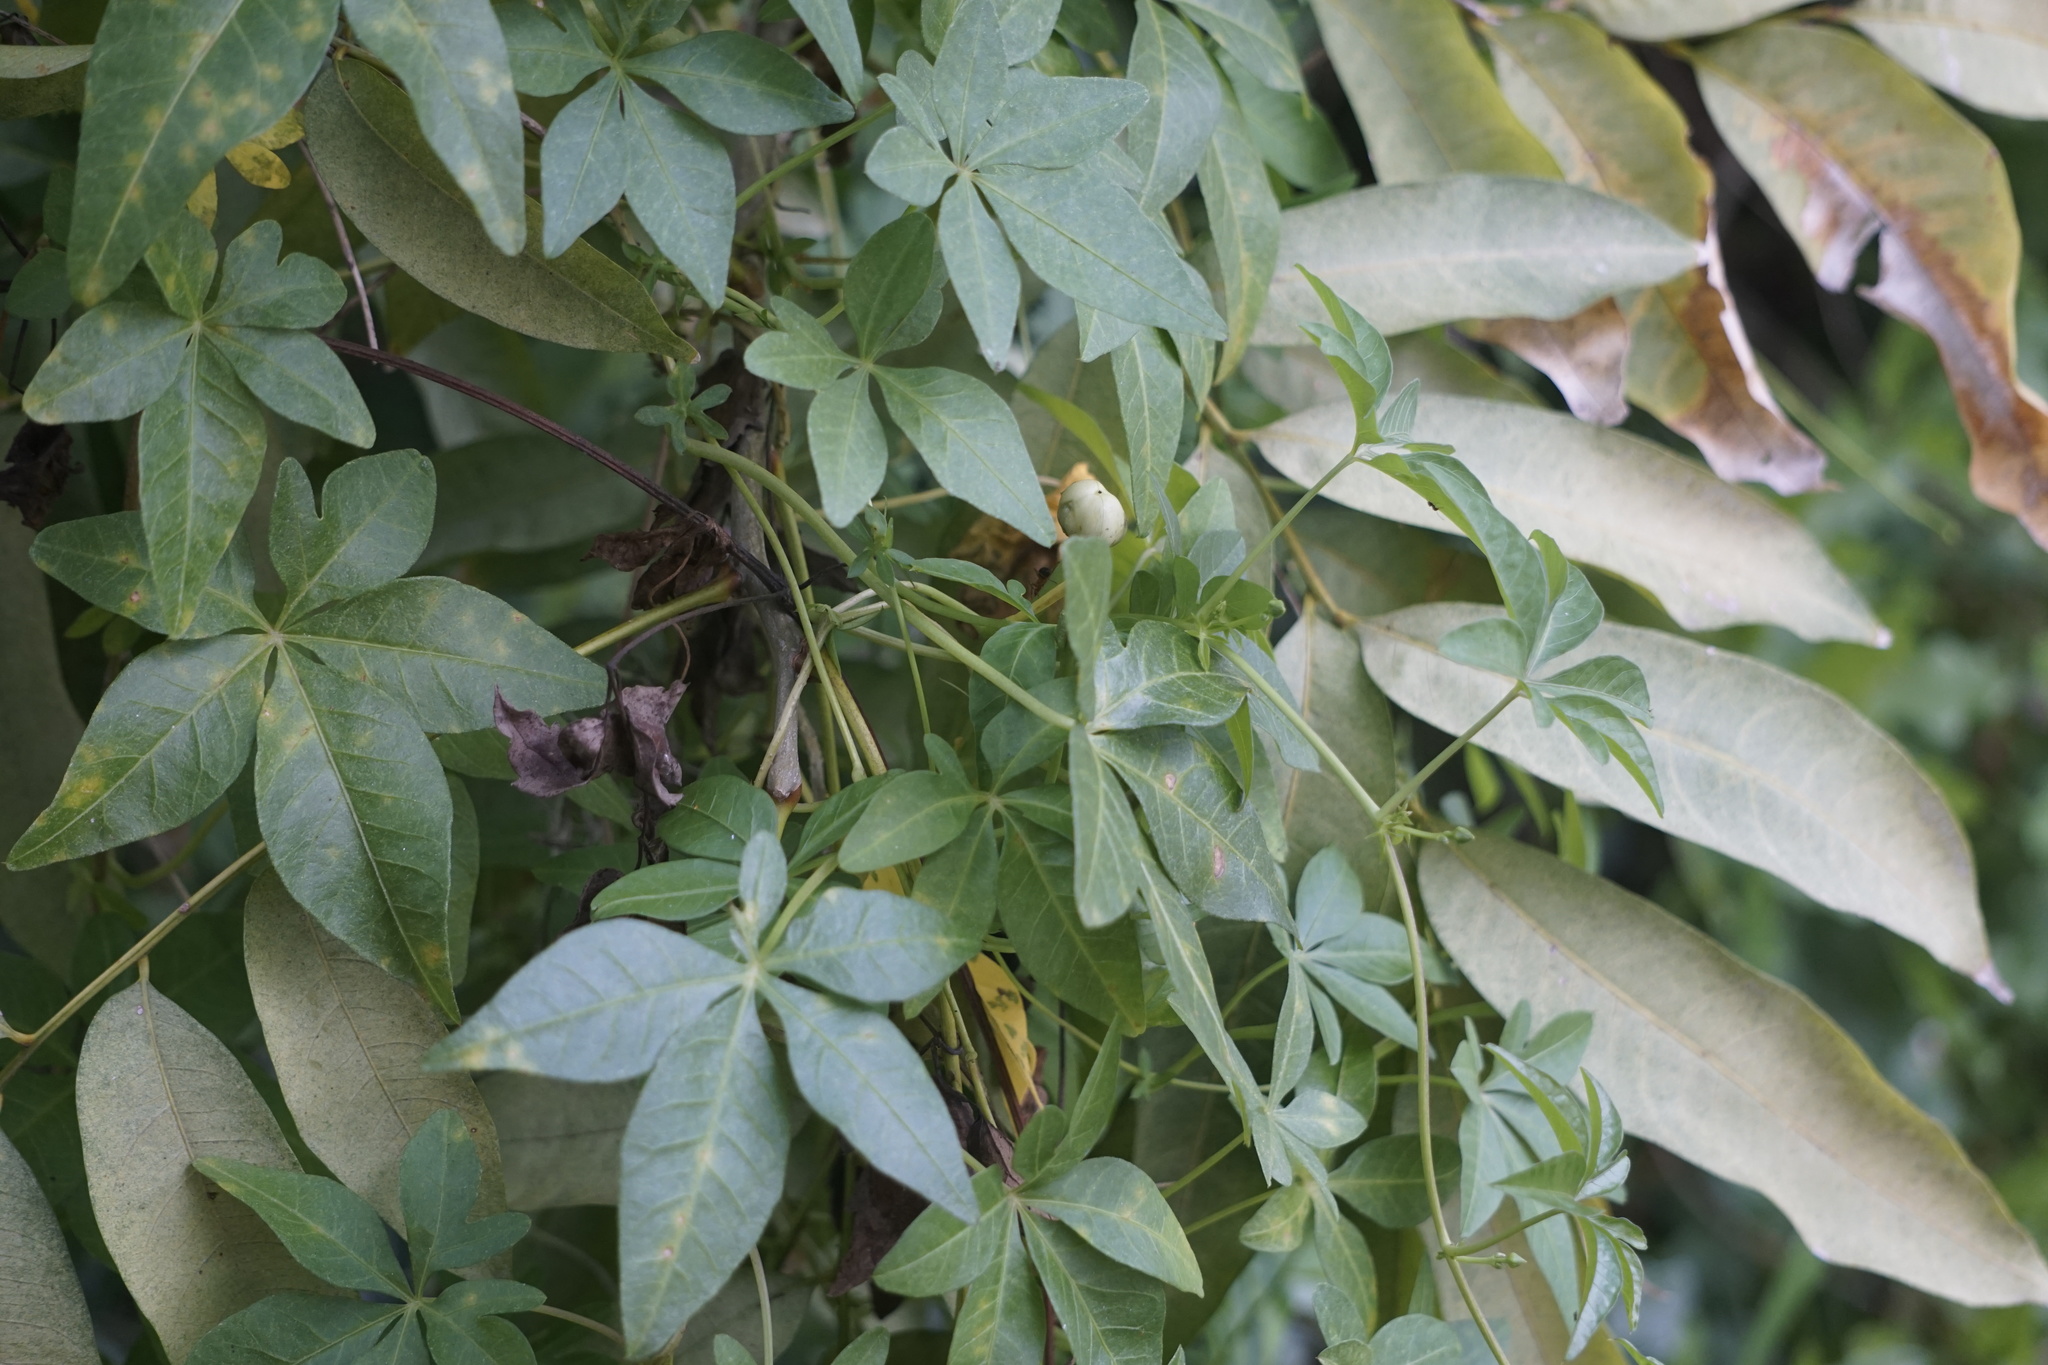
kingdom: Plantae
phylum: Tracheophyta
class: Magnoliopsida
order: Solanales
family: Convolvulaceae
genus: Ipomoea
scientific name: Ipomoea cairica
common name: Mile a minute vine
